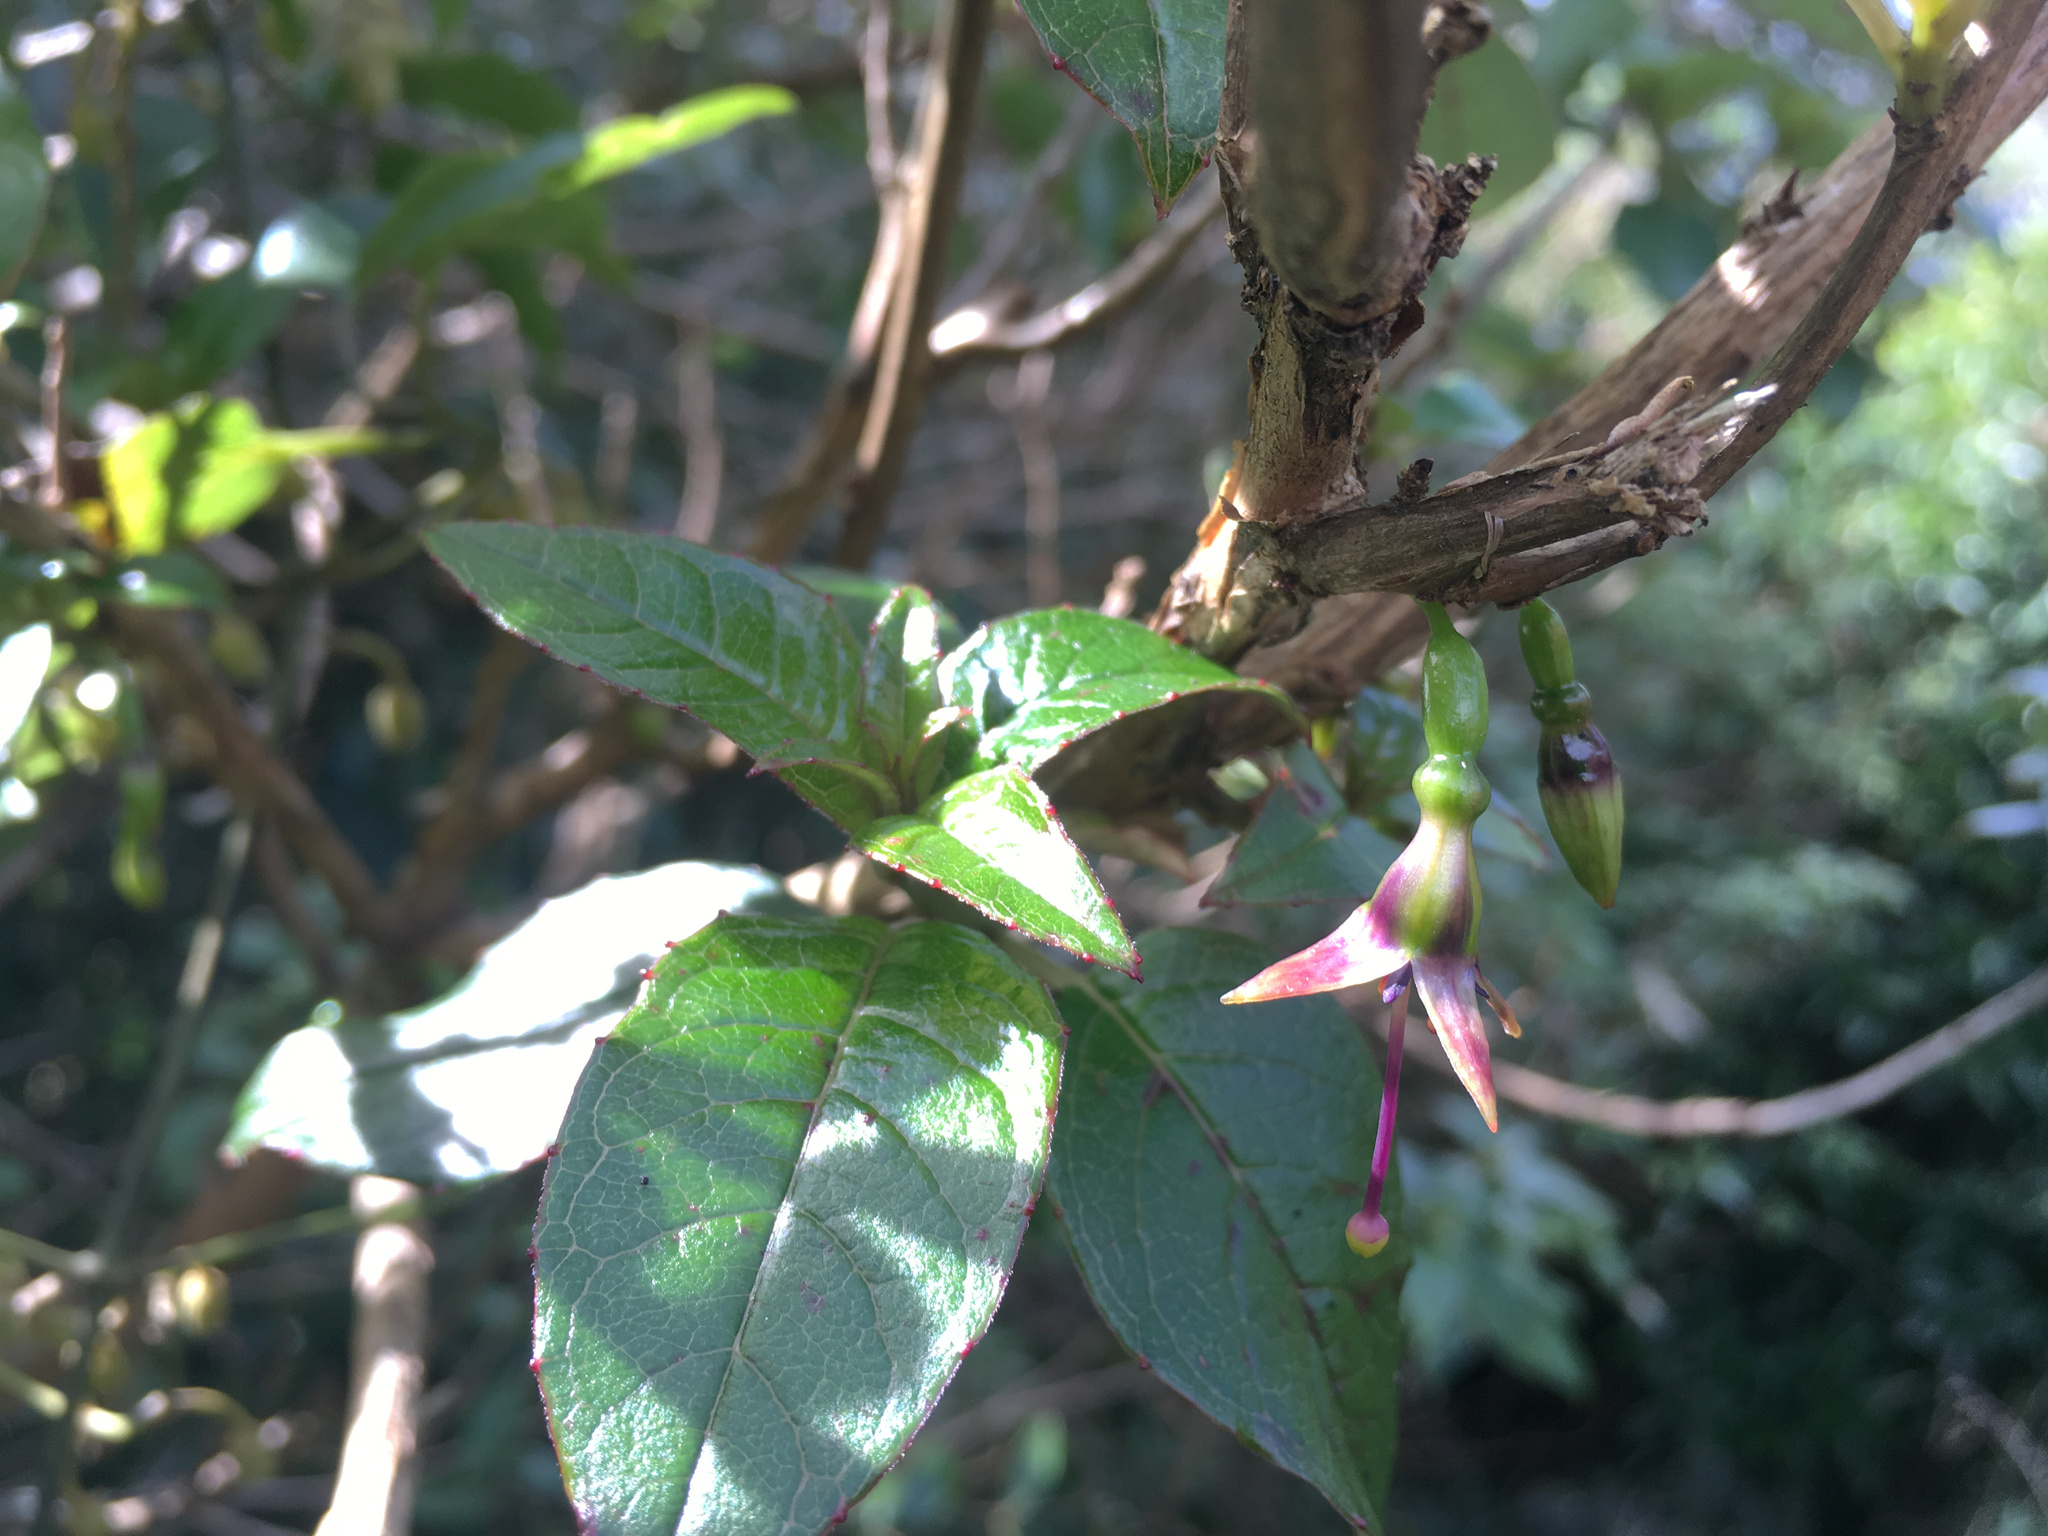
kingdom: Plantae
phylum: Tracheophyta
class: Magnoliopsida
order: Myrtales
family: Onagraceae
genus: Fuchsia
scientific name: Fuchsia excorticata
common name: Tree fuchsia
